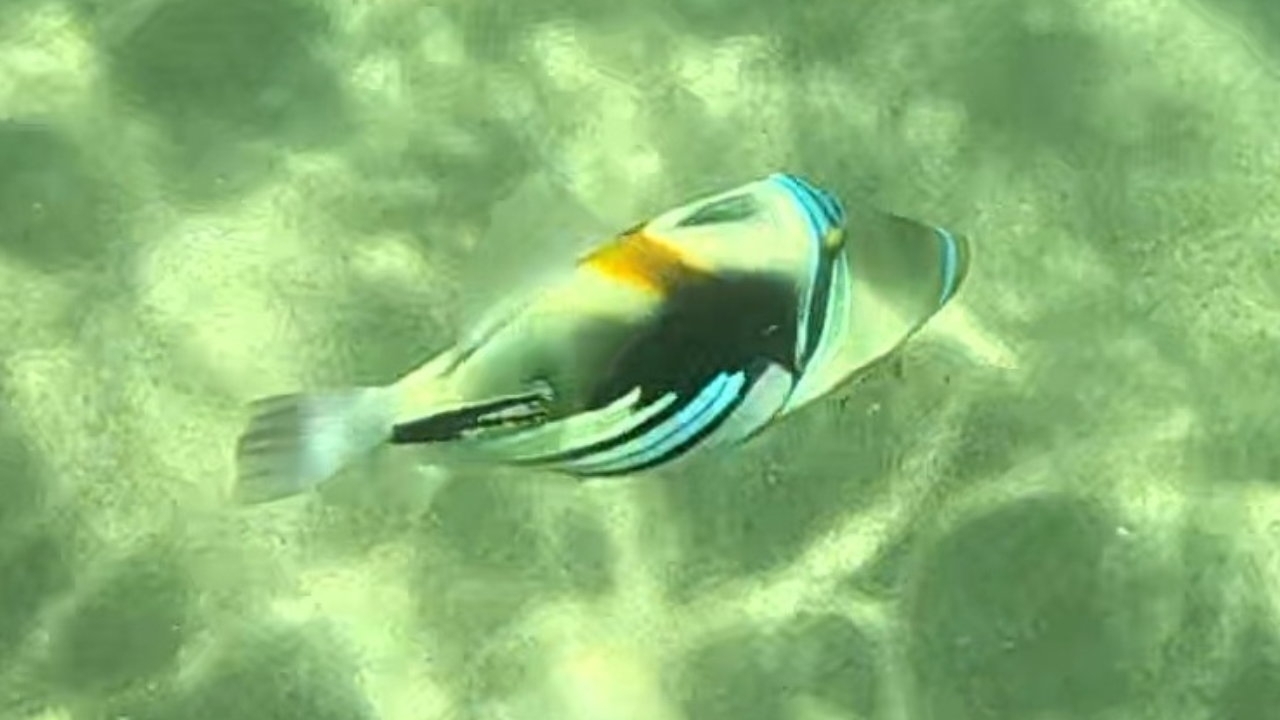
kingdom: Animalia
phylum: Chordata
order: Tetraodontiformes
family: Balistidae
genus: Rhinecanthus
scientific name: Rhinecanthus aculeatus
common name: White-banded triggerfish
